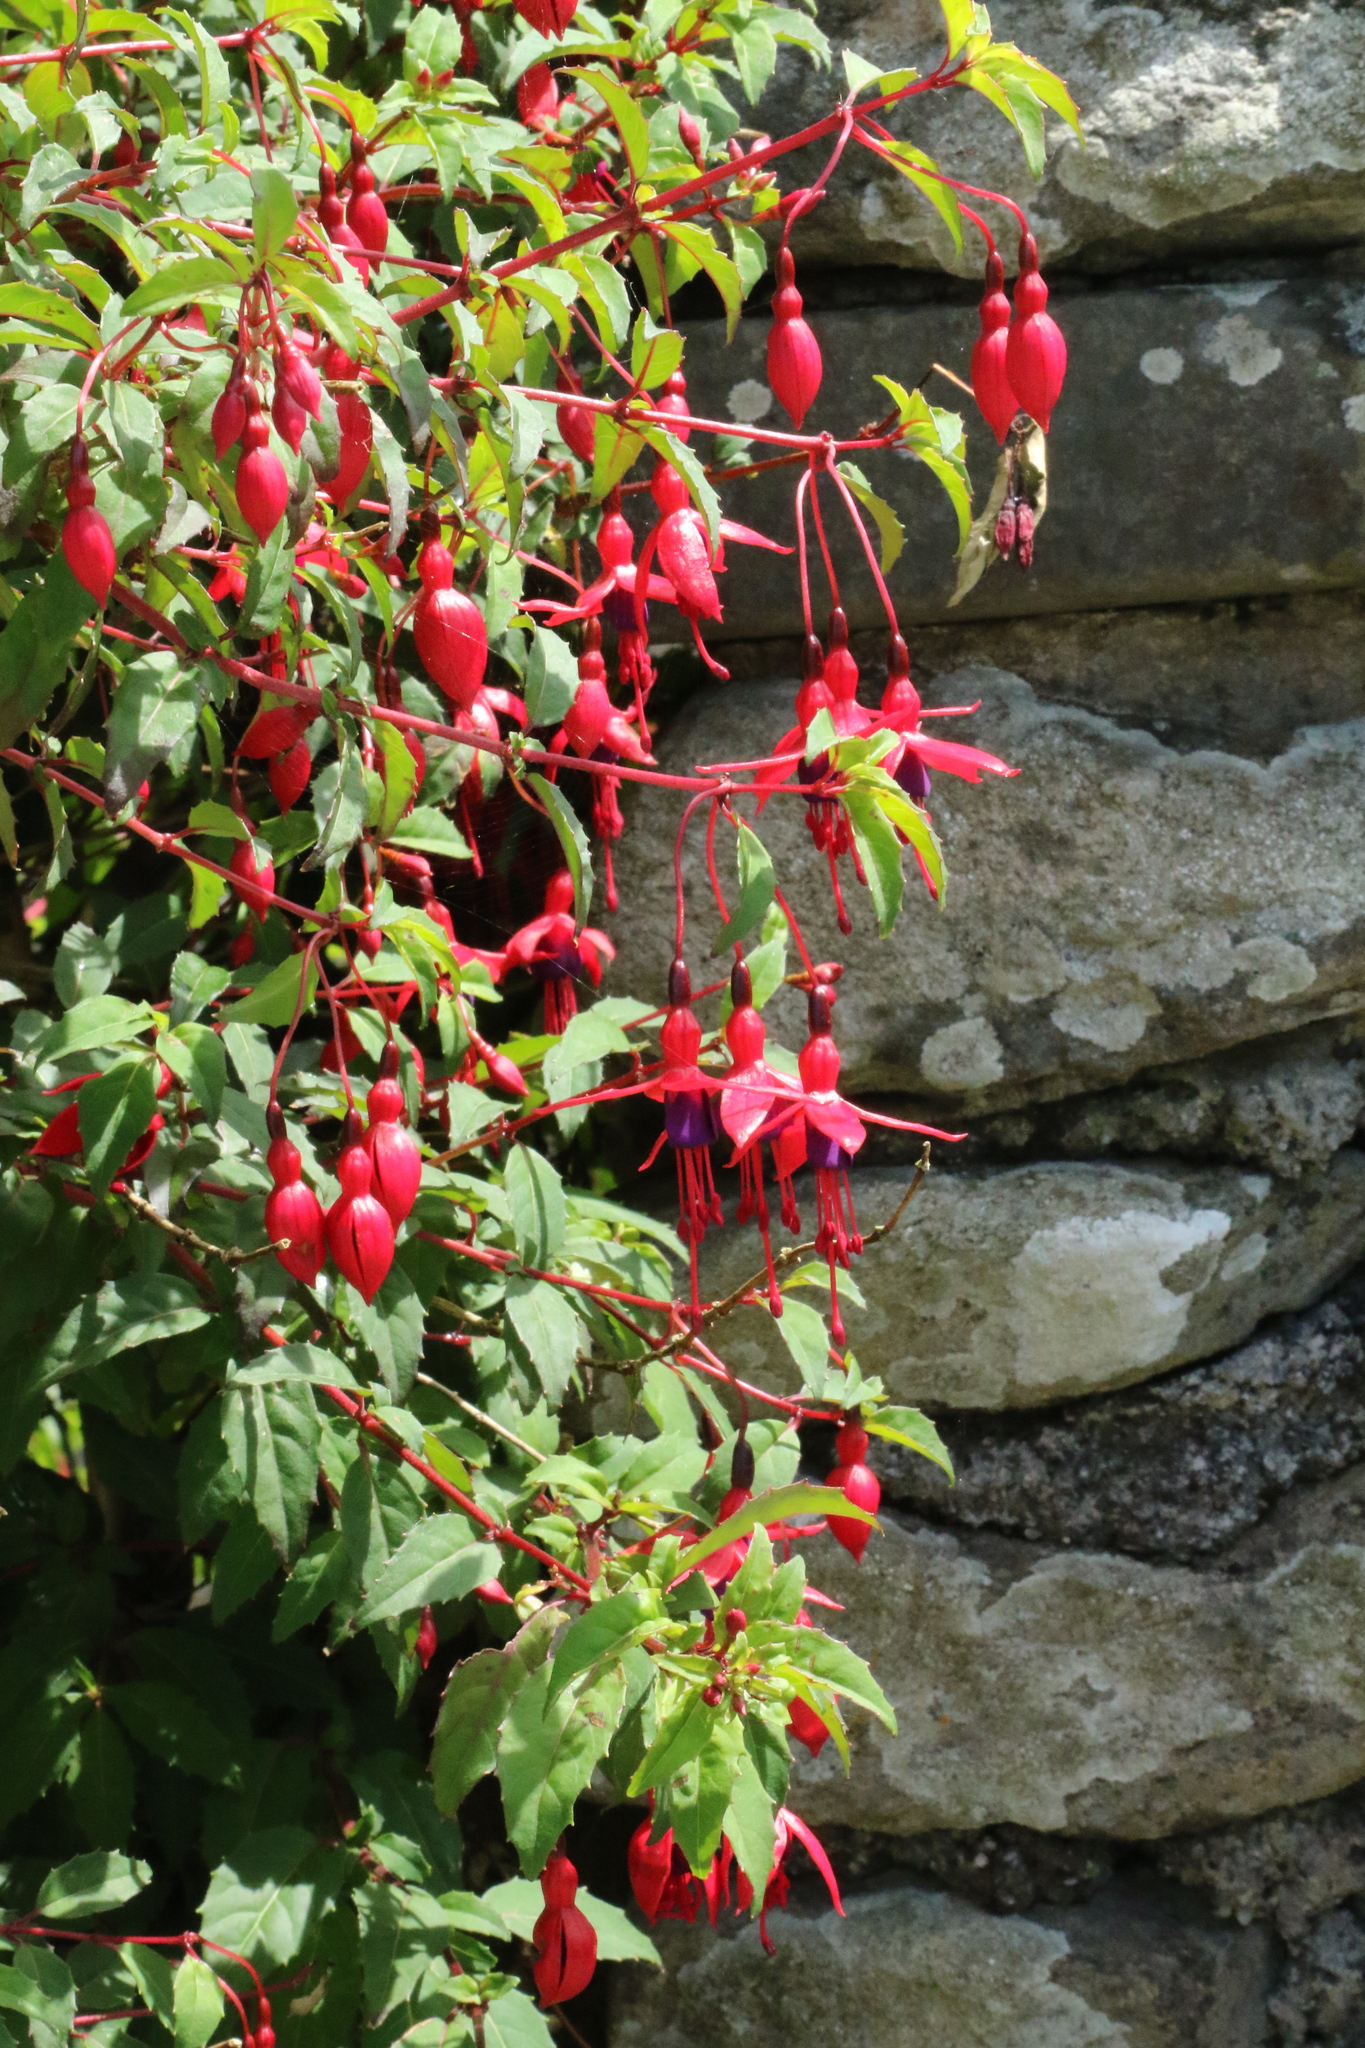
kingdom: Plantae
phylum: Tracheophyta
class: Magnoliopsida
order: Myrtales
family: Onagraceae
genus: Fuchsia
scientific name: Fuchsia magellanica
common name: Hardy fuchsia
